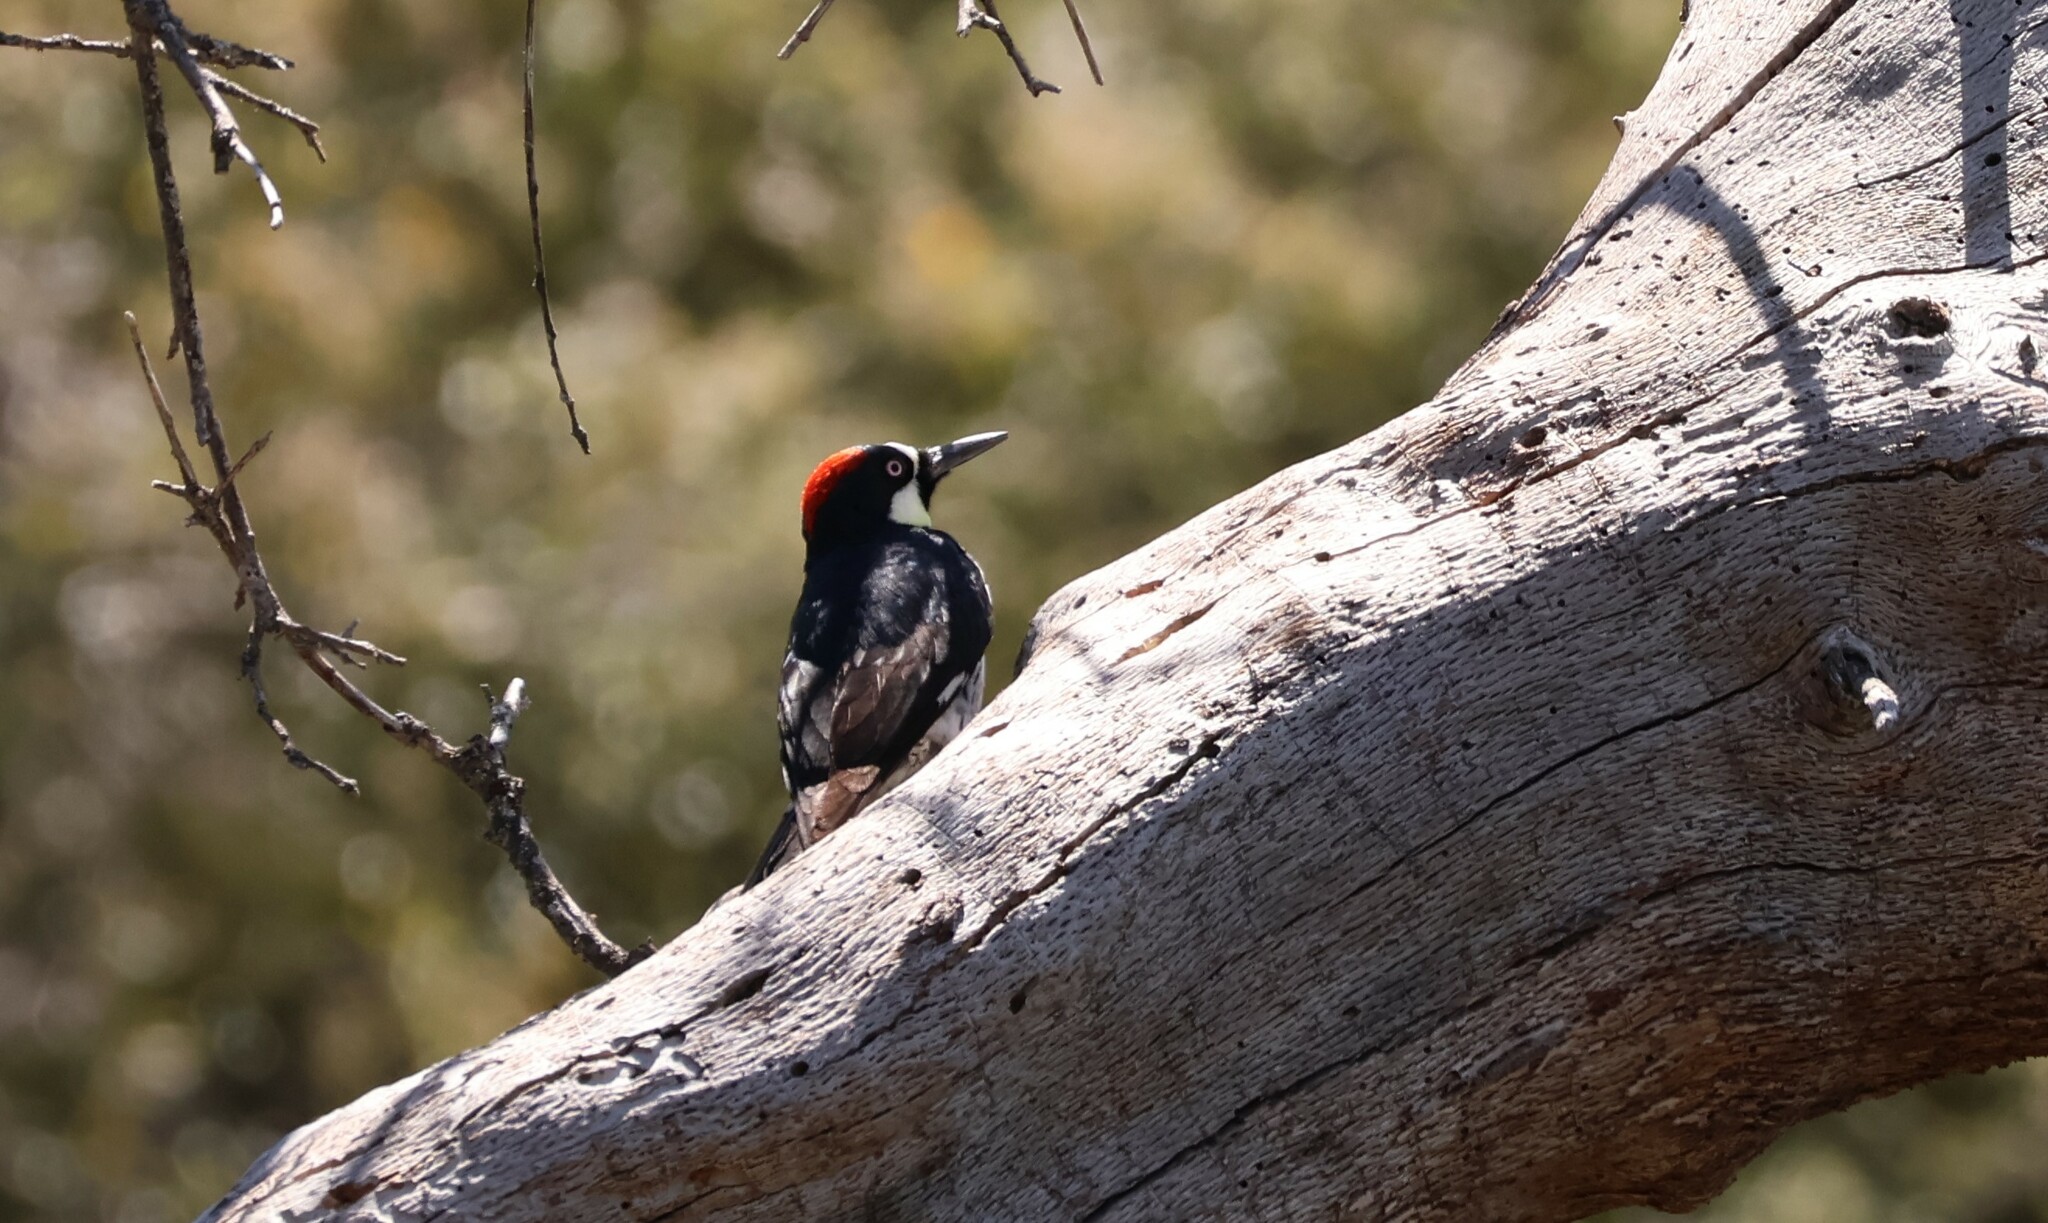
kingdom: Animalia
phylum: Chordata
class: Aves
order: Piciformes
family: Picidae
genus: Melanerpes
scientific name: Melanerpes formicivorus
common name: Acorn woodpecker
